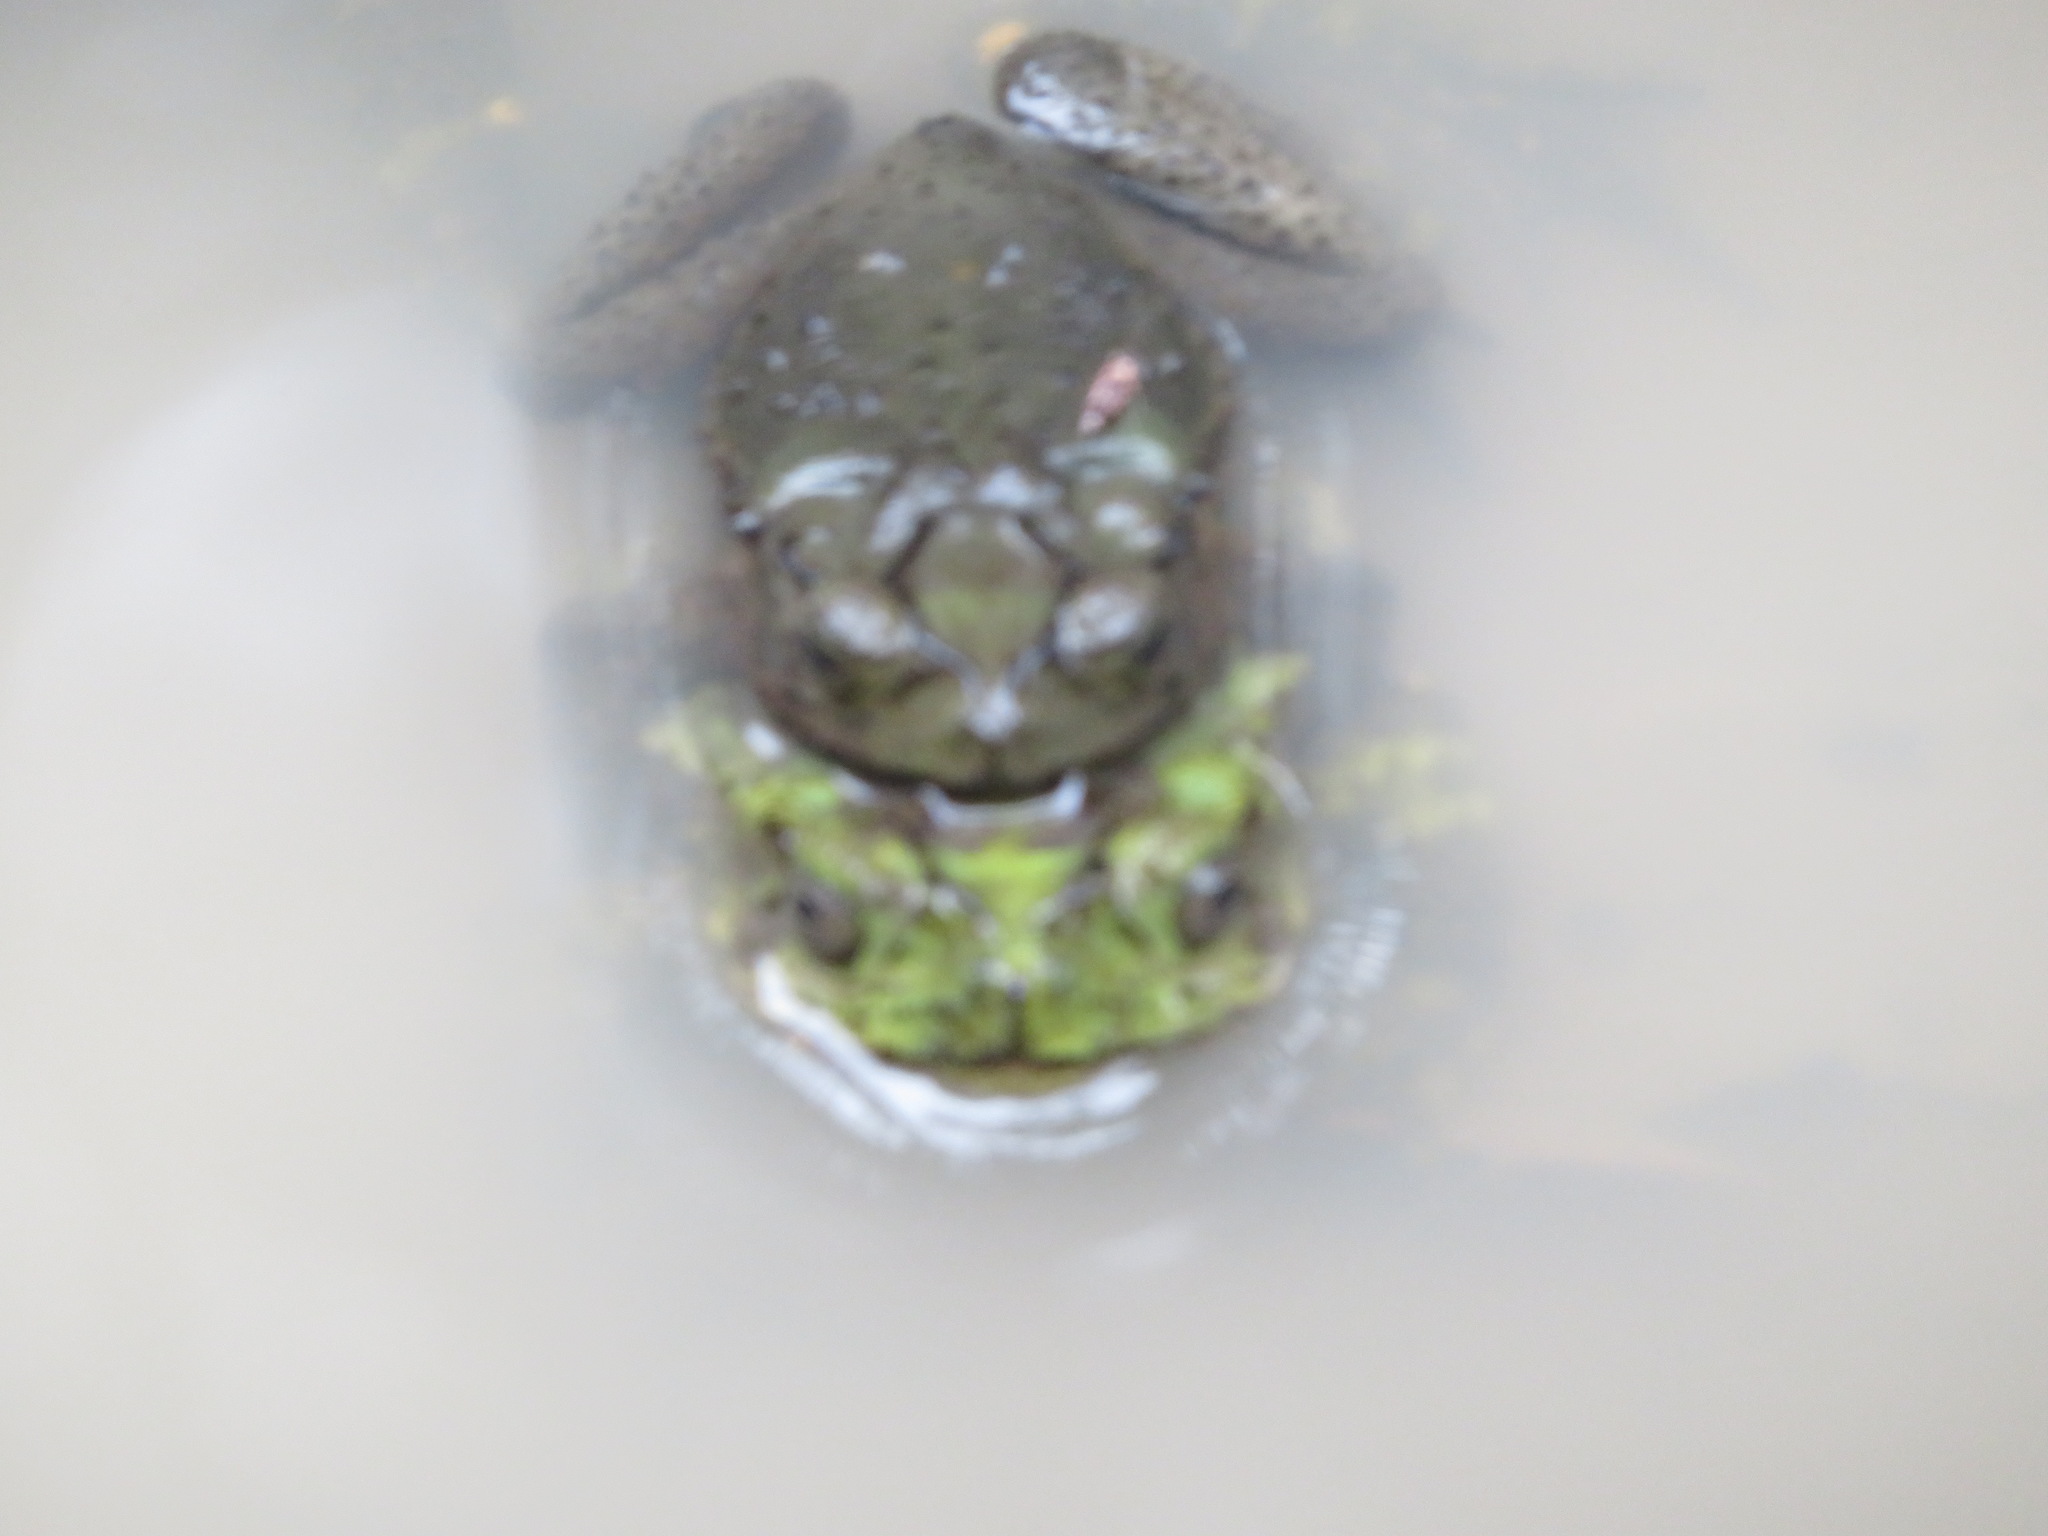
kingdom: Animalia
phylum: Chordata
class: Amphibia
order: Anura
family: Bufonidae
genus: Incilius
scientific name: Incilius coniferus
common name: Evergreen toad
